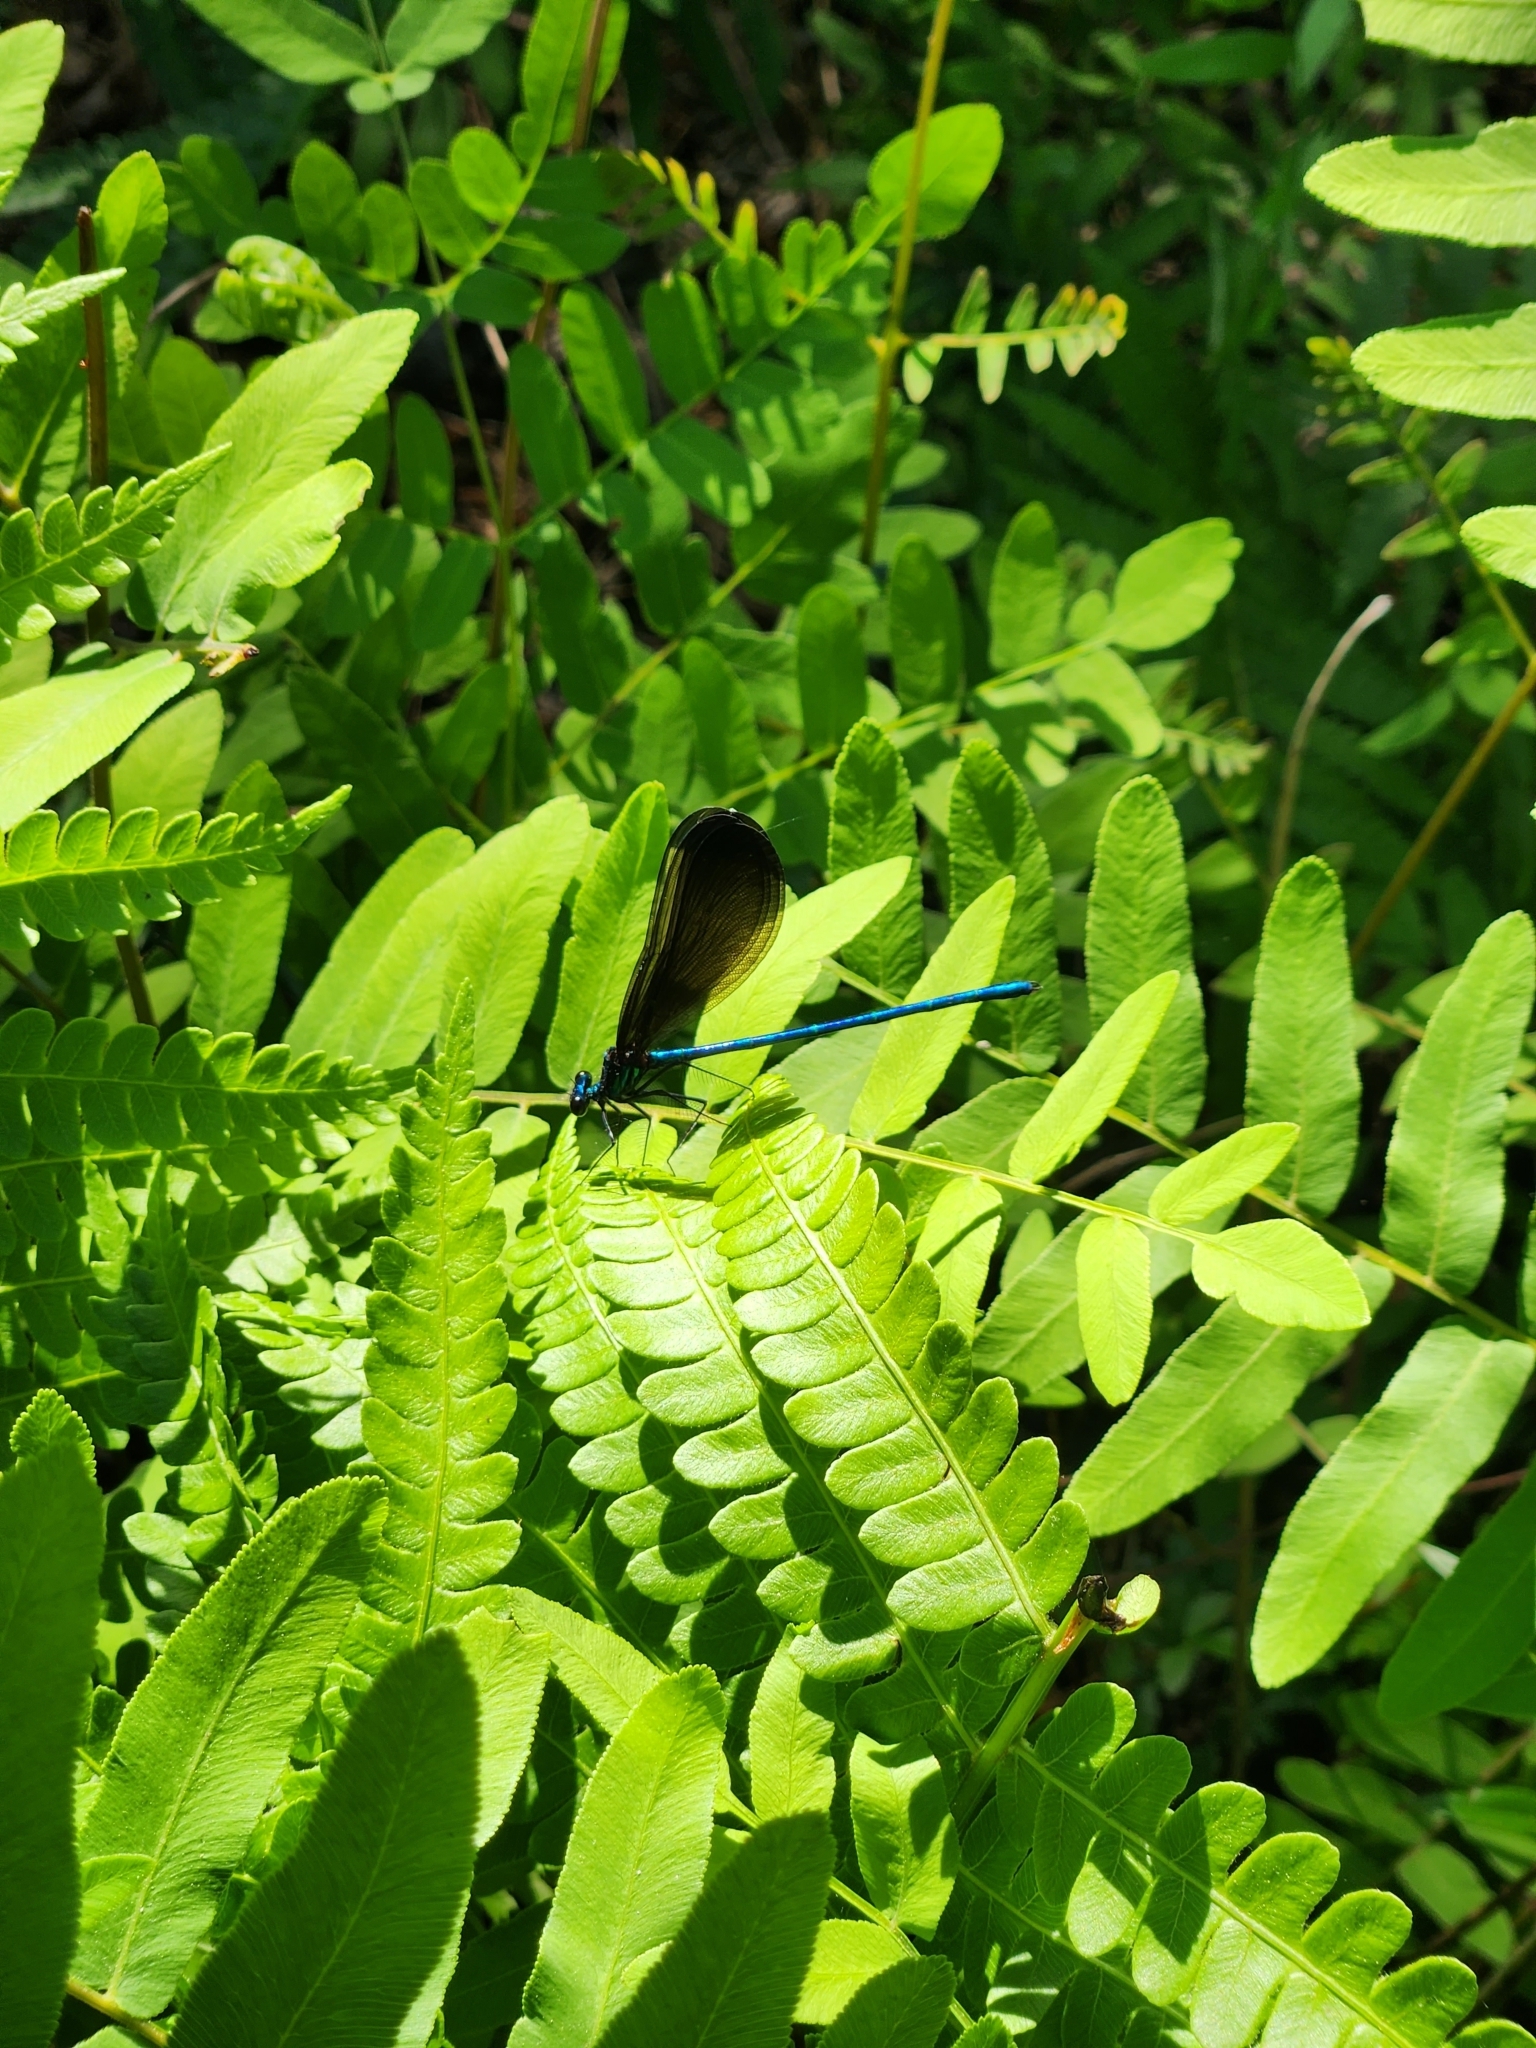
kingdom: Animalia
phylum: Arthropoda
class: Insecta
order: Odonata
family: Calopterygidae
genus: Calopteryx
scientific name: Calopteryx maculata
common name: Ebony jewelwing
